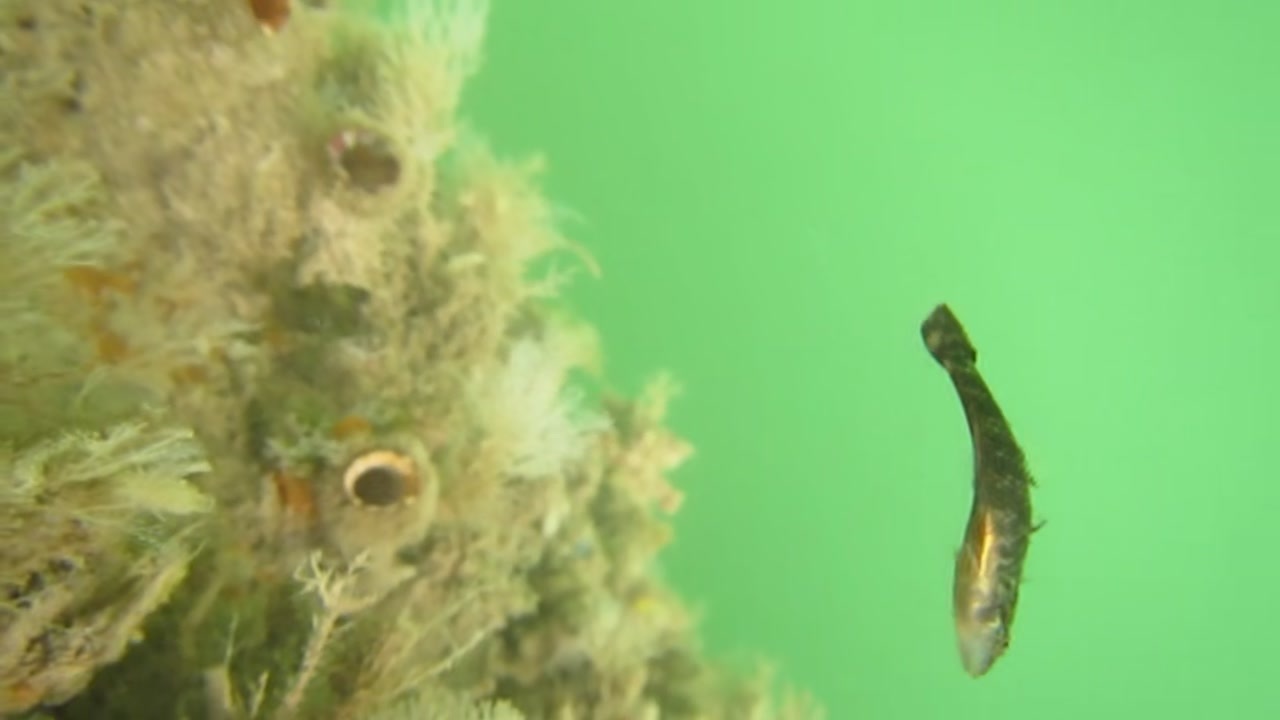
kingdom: Animalia
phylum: Chordata
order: Perciformes
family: Eleotridae
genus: Butis
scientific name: Butis butis
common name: Duckbill sleeper
